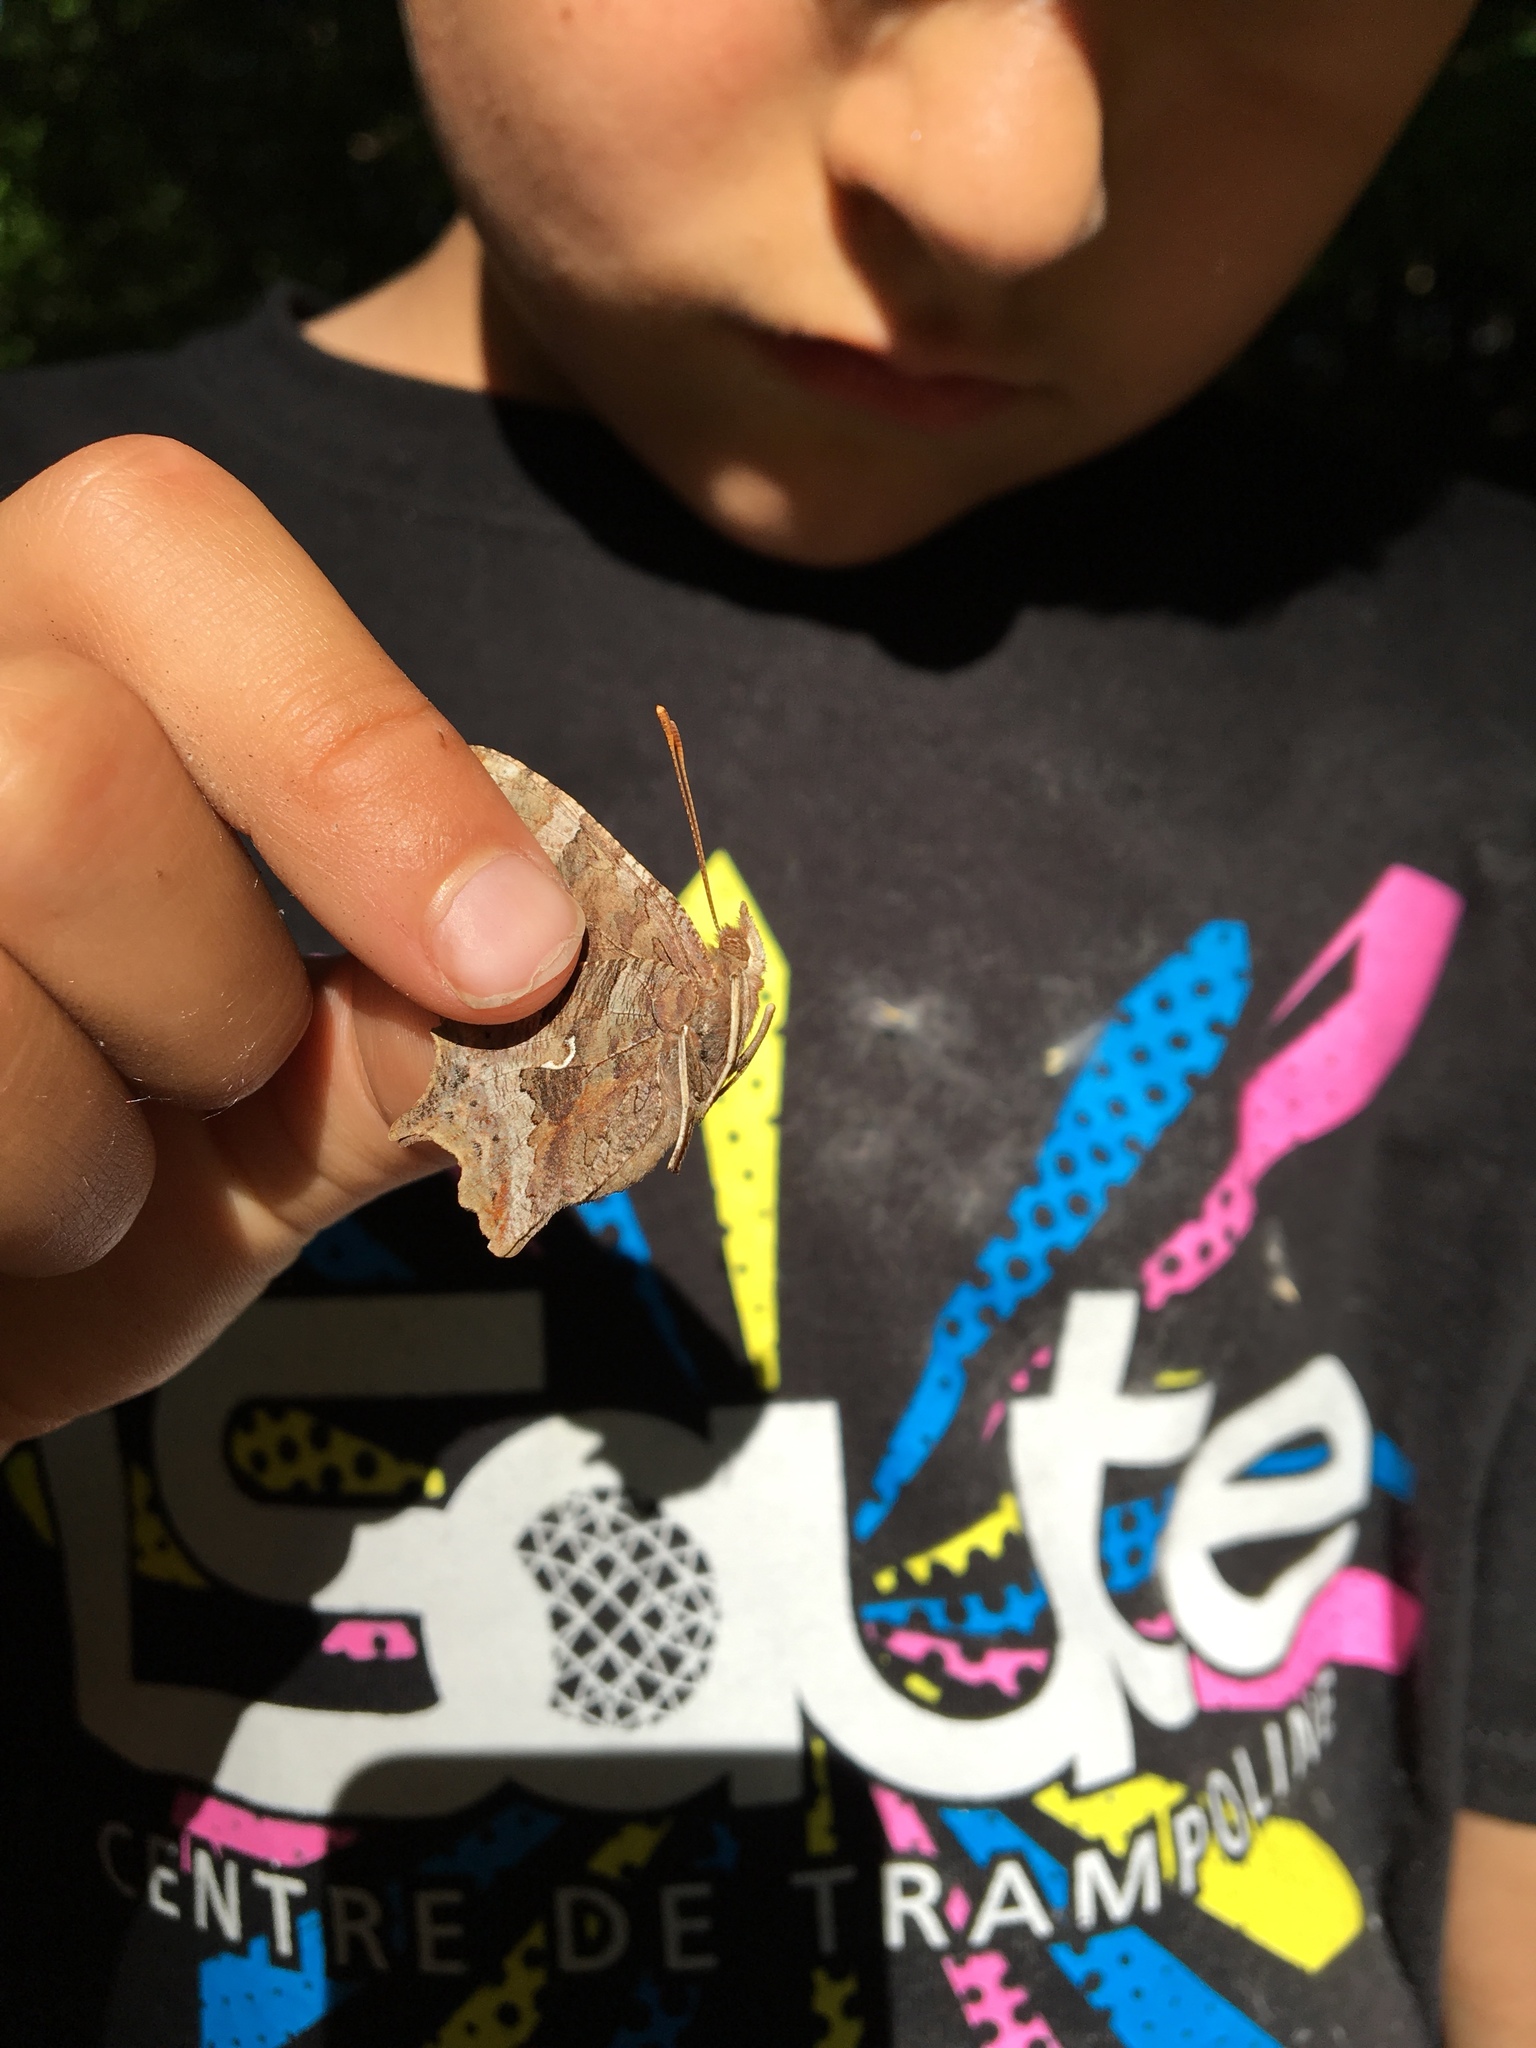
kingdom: Animalia
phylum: Arthropoda
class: Insecta
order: Lepidoptera
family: Nymphalidae
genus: Polygonia
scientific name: Polygonia comma
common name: Eastern comma
